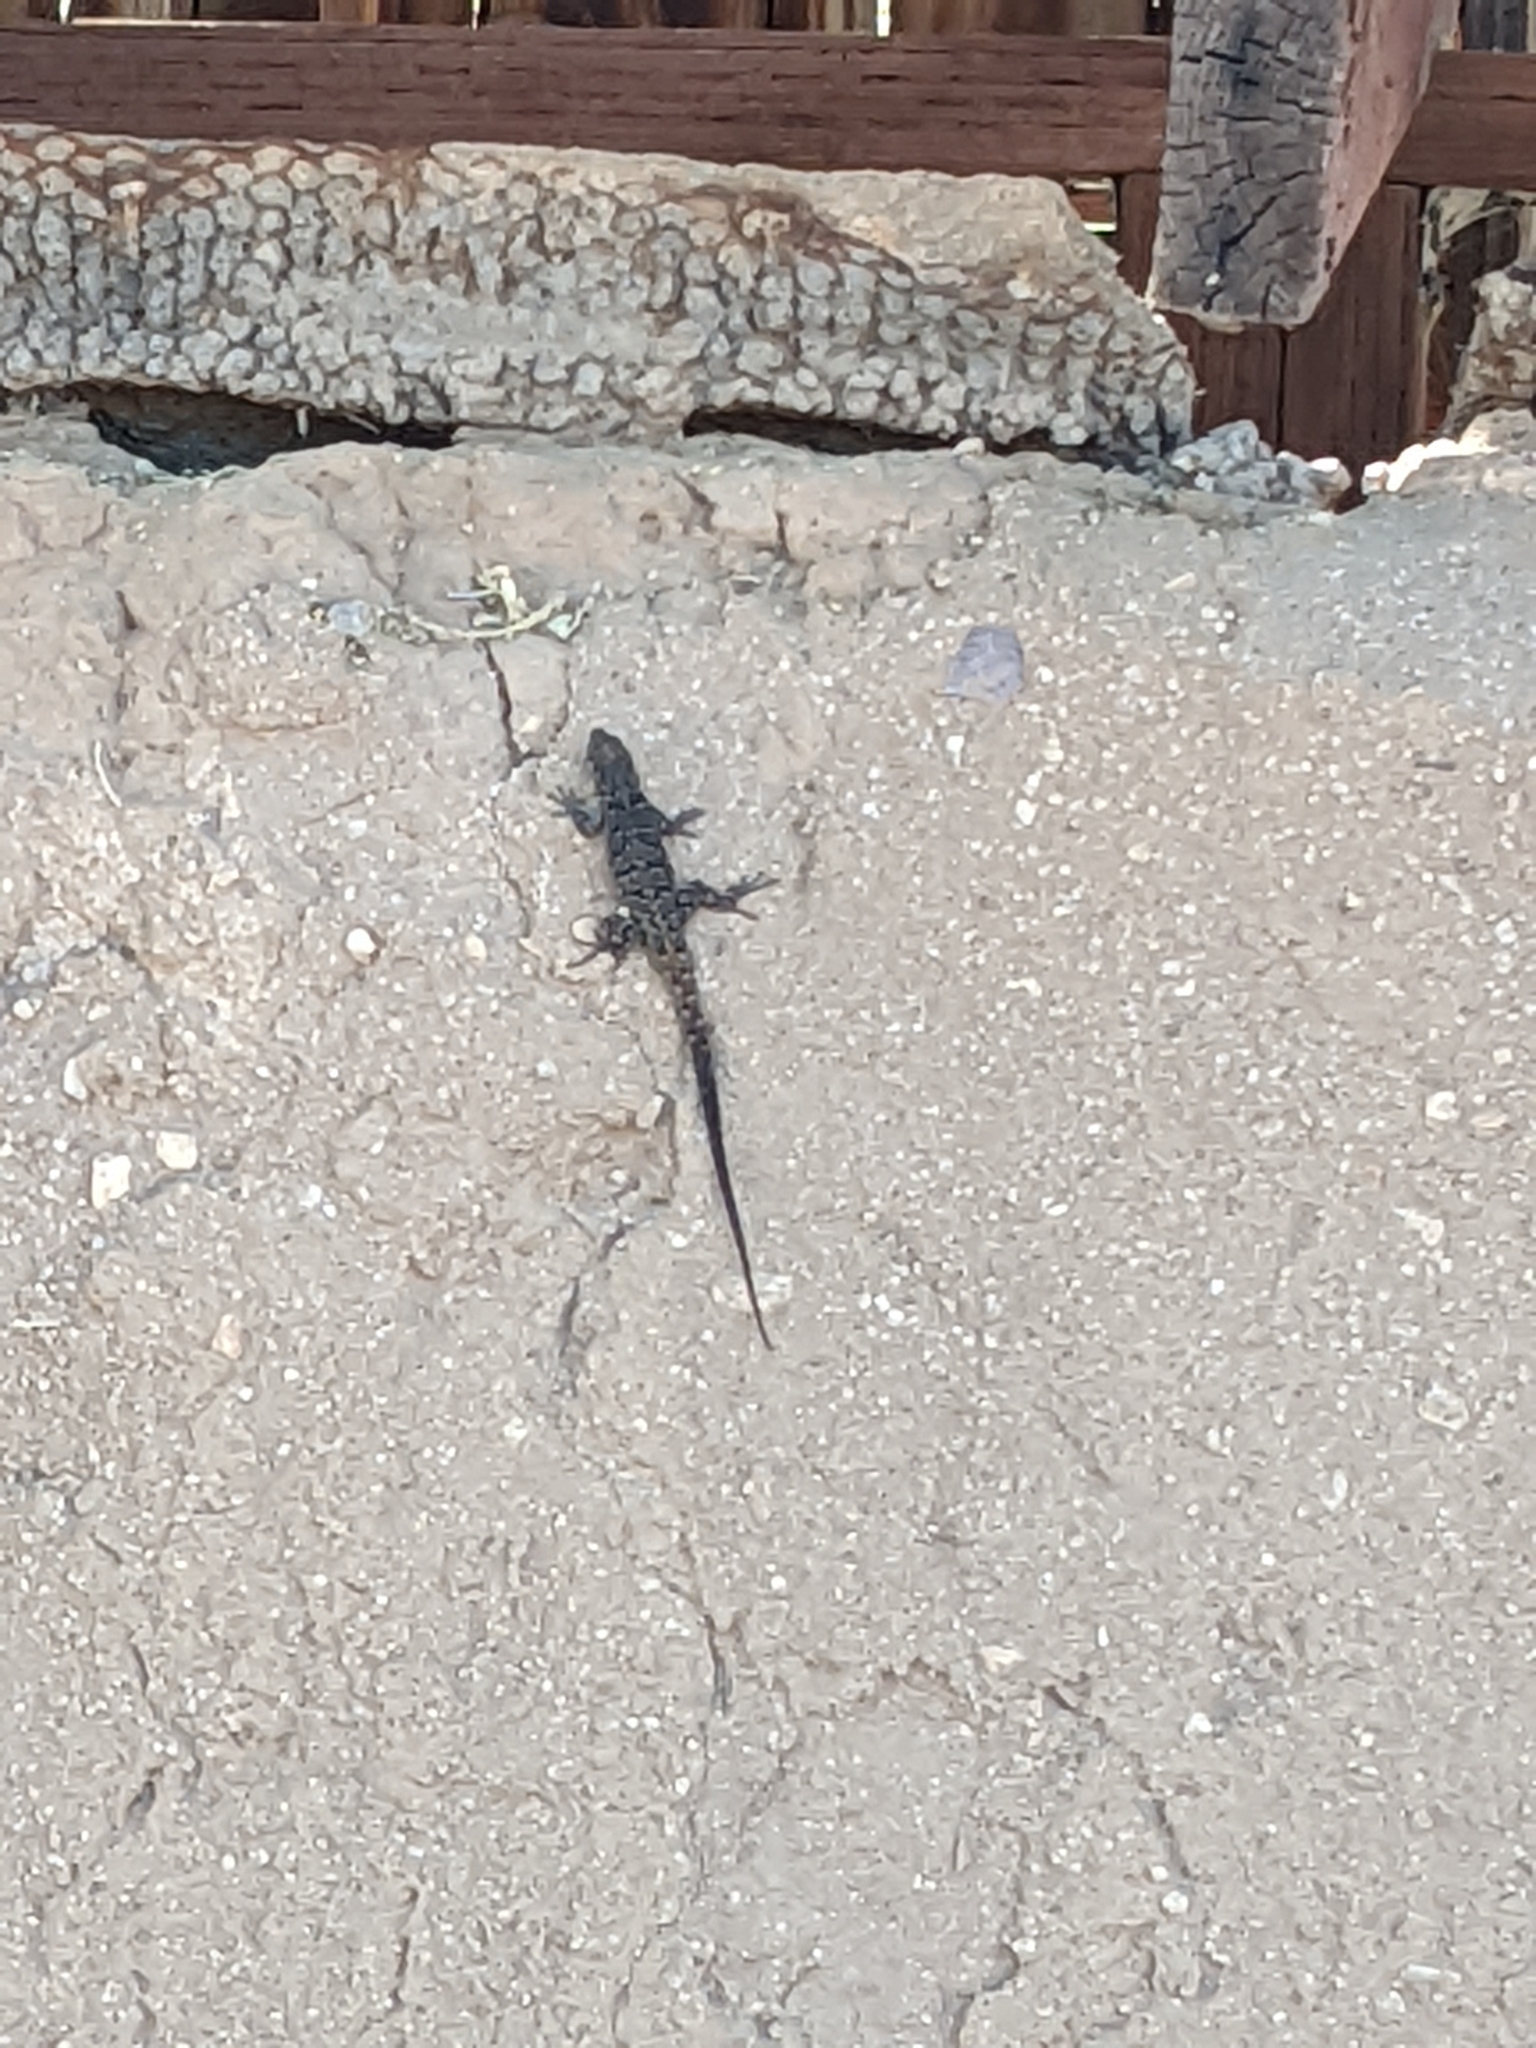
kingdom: Animalia
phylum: Chordata
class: Squamata
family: Phrynosomatidae
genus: Urosaurus
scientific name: Urosaurus ornatus
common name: Ornate tree lizard
